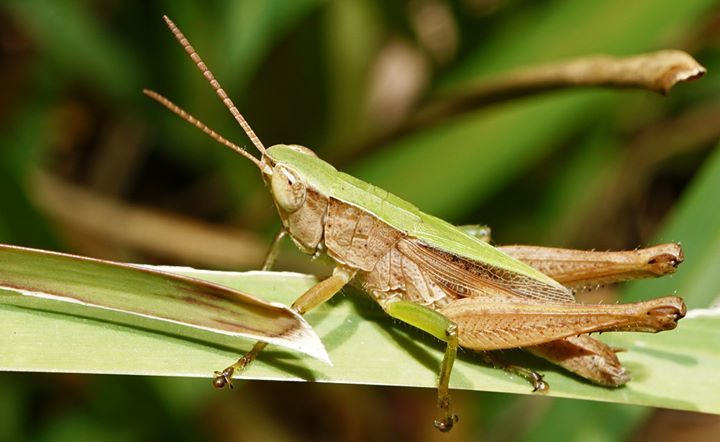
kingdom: Animalia
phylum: Arthropoda
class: Insecta
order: Orthoptera
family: Acrididae
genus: Dichromorpha
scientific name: Dichromorpha viridis
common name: Short-winged green grasshopper
